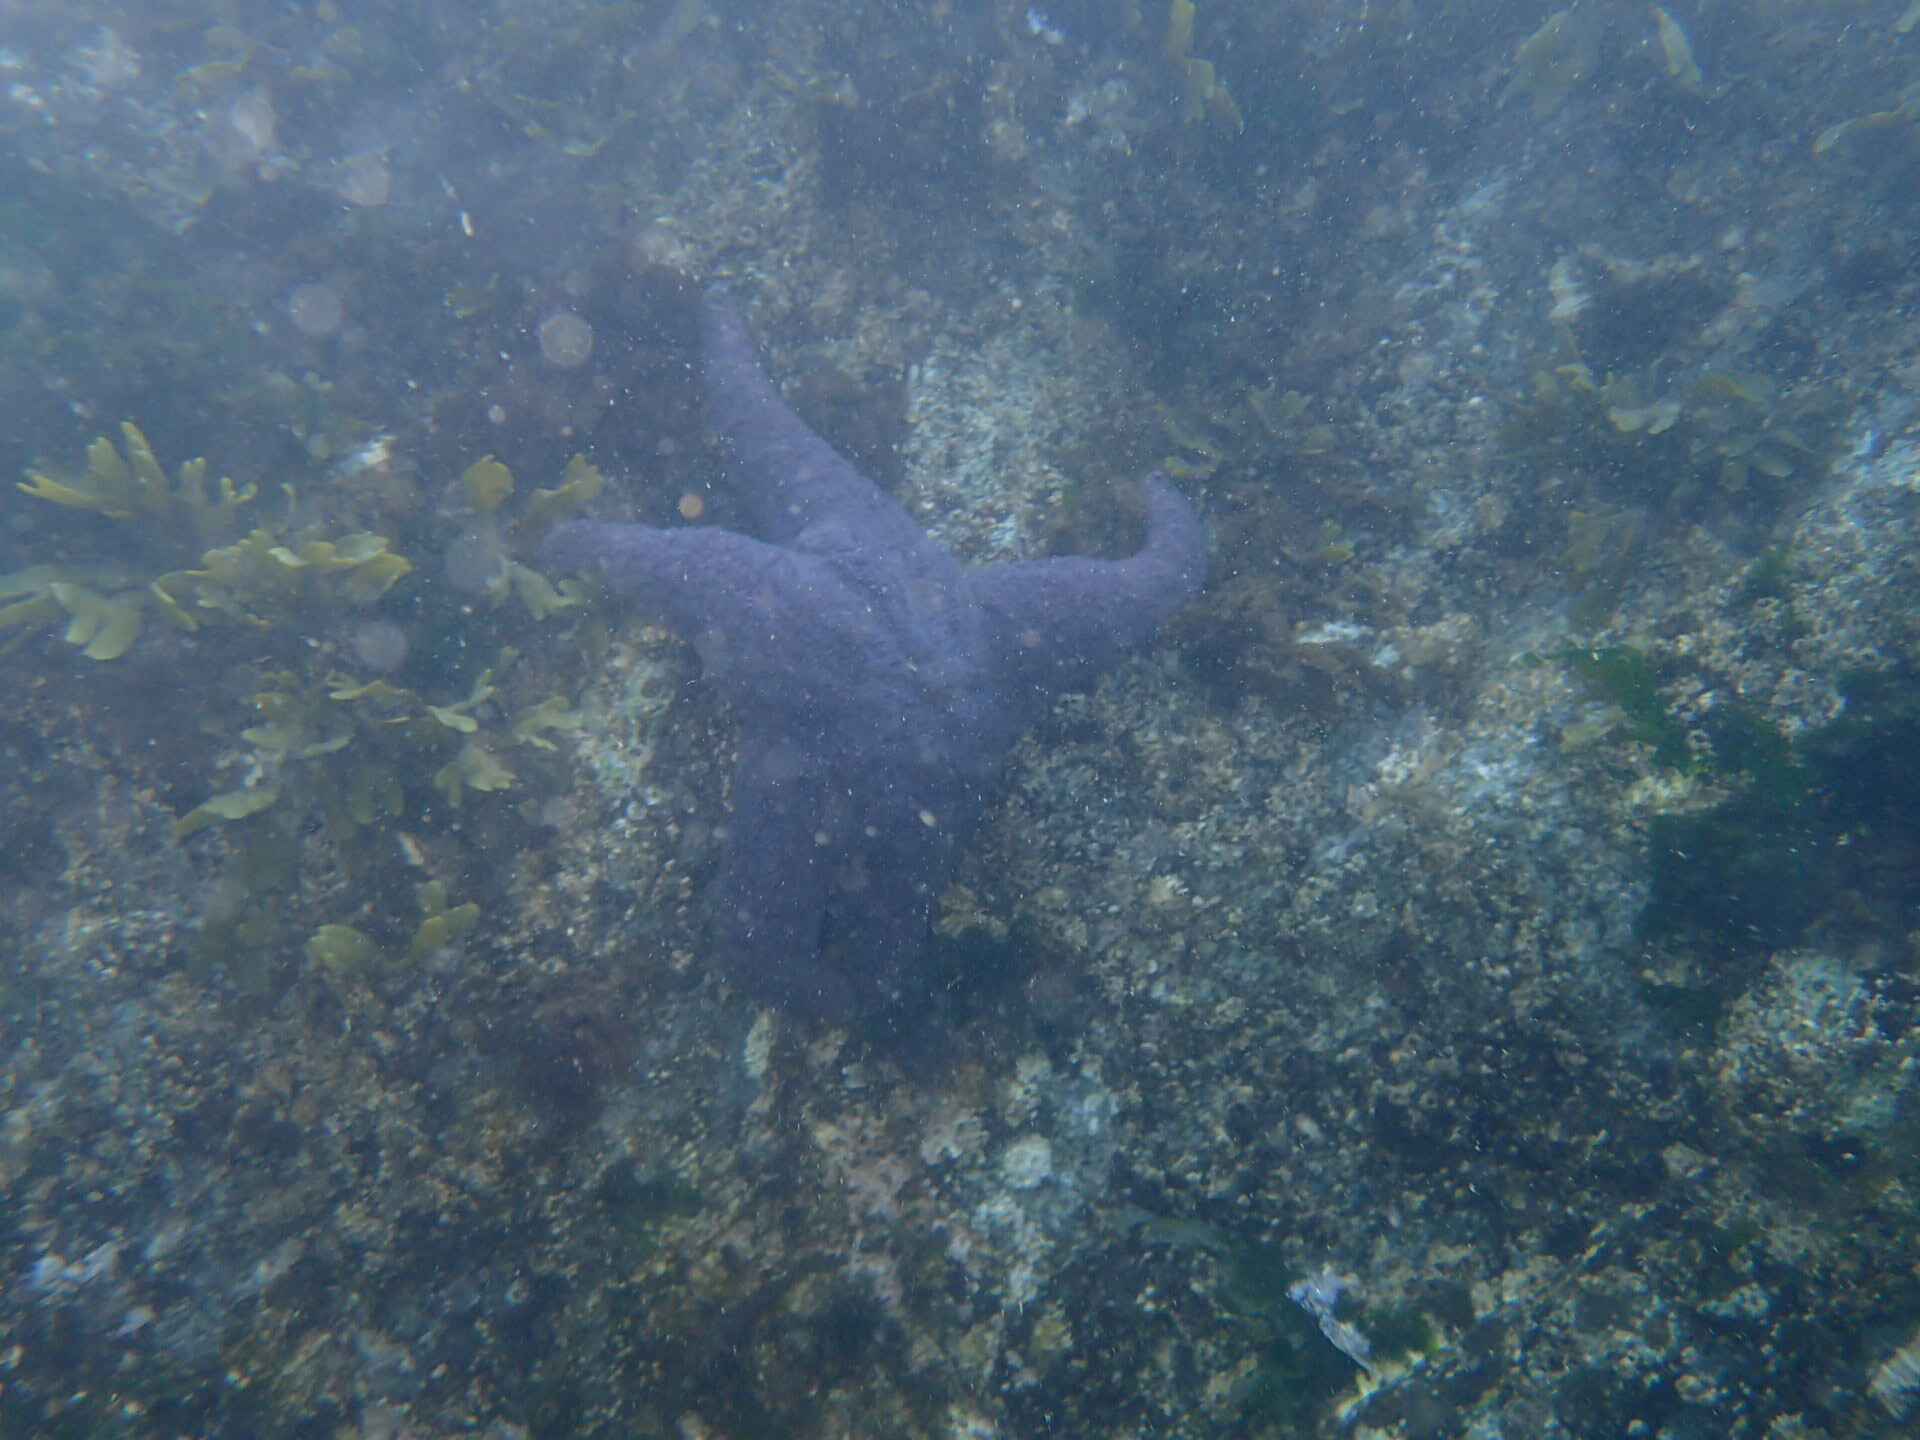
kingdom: Animalia
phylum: Echinodermata
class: Asteroidea
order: Forcipulatida
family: Asteriidae
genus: Pisaster
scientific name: Pisaster ochraceus
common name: Ochre stars
